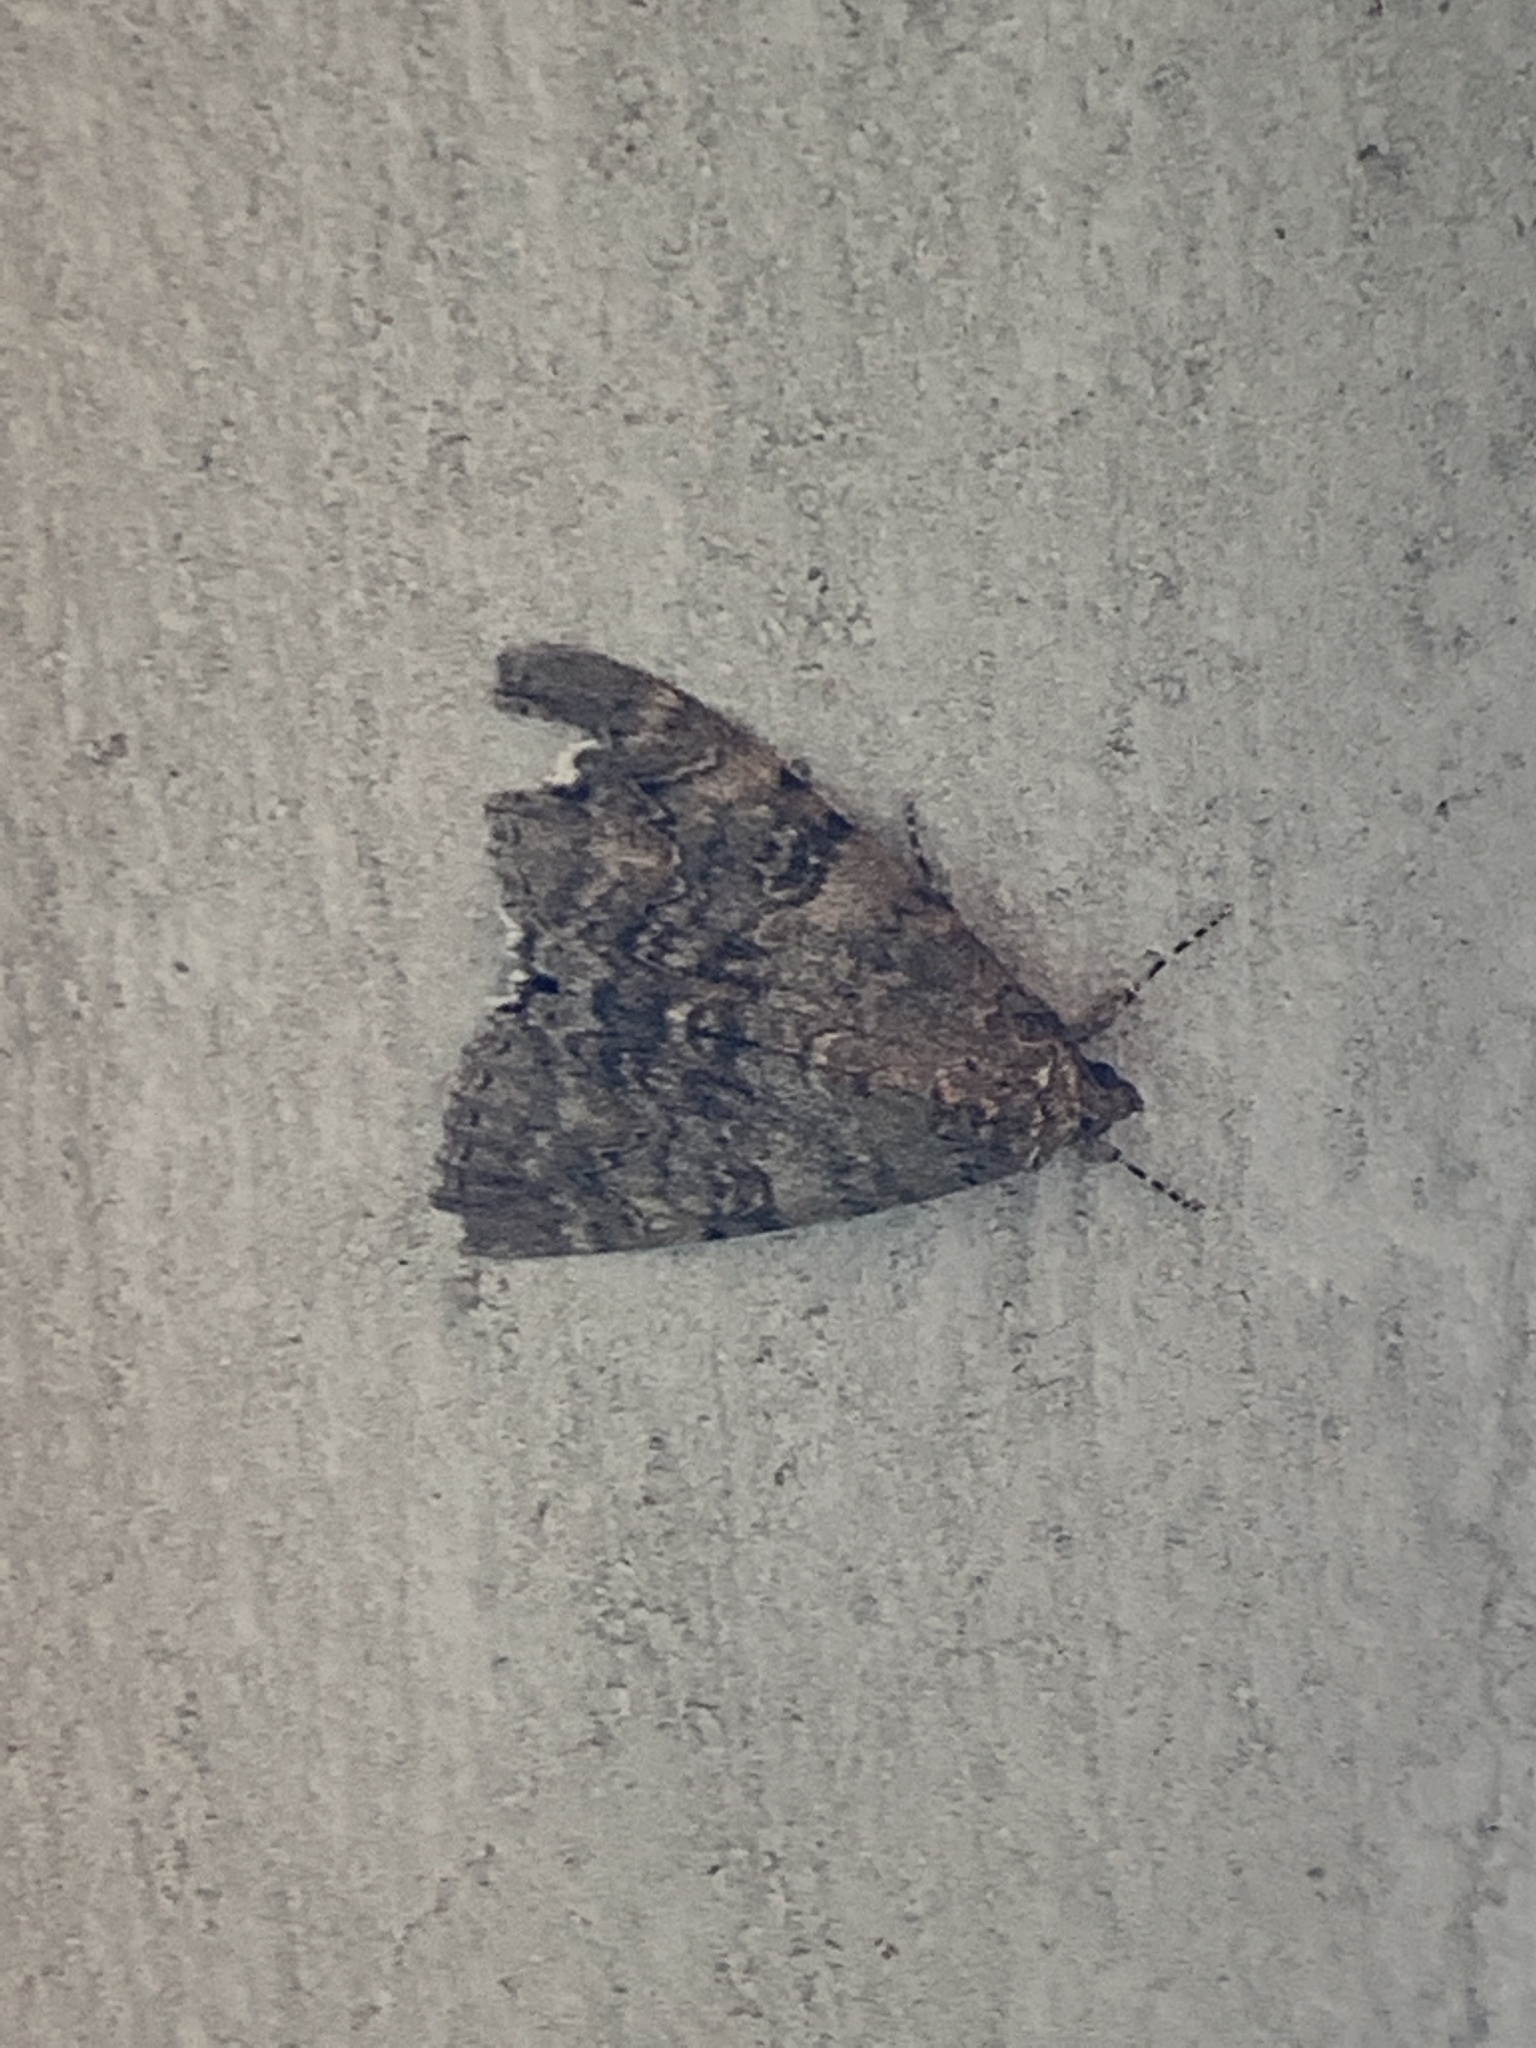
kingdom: Animalia
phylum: Arthropoda
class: Insecta
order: Lepidoptera
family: Erebidae
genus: Catocala
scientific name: Catocala nupta
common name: Red underwing
